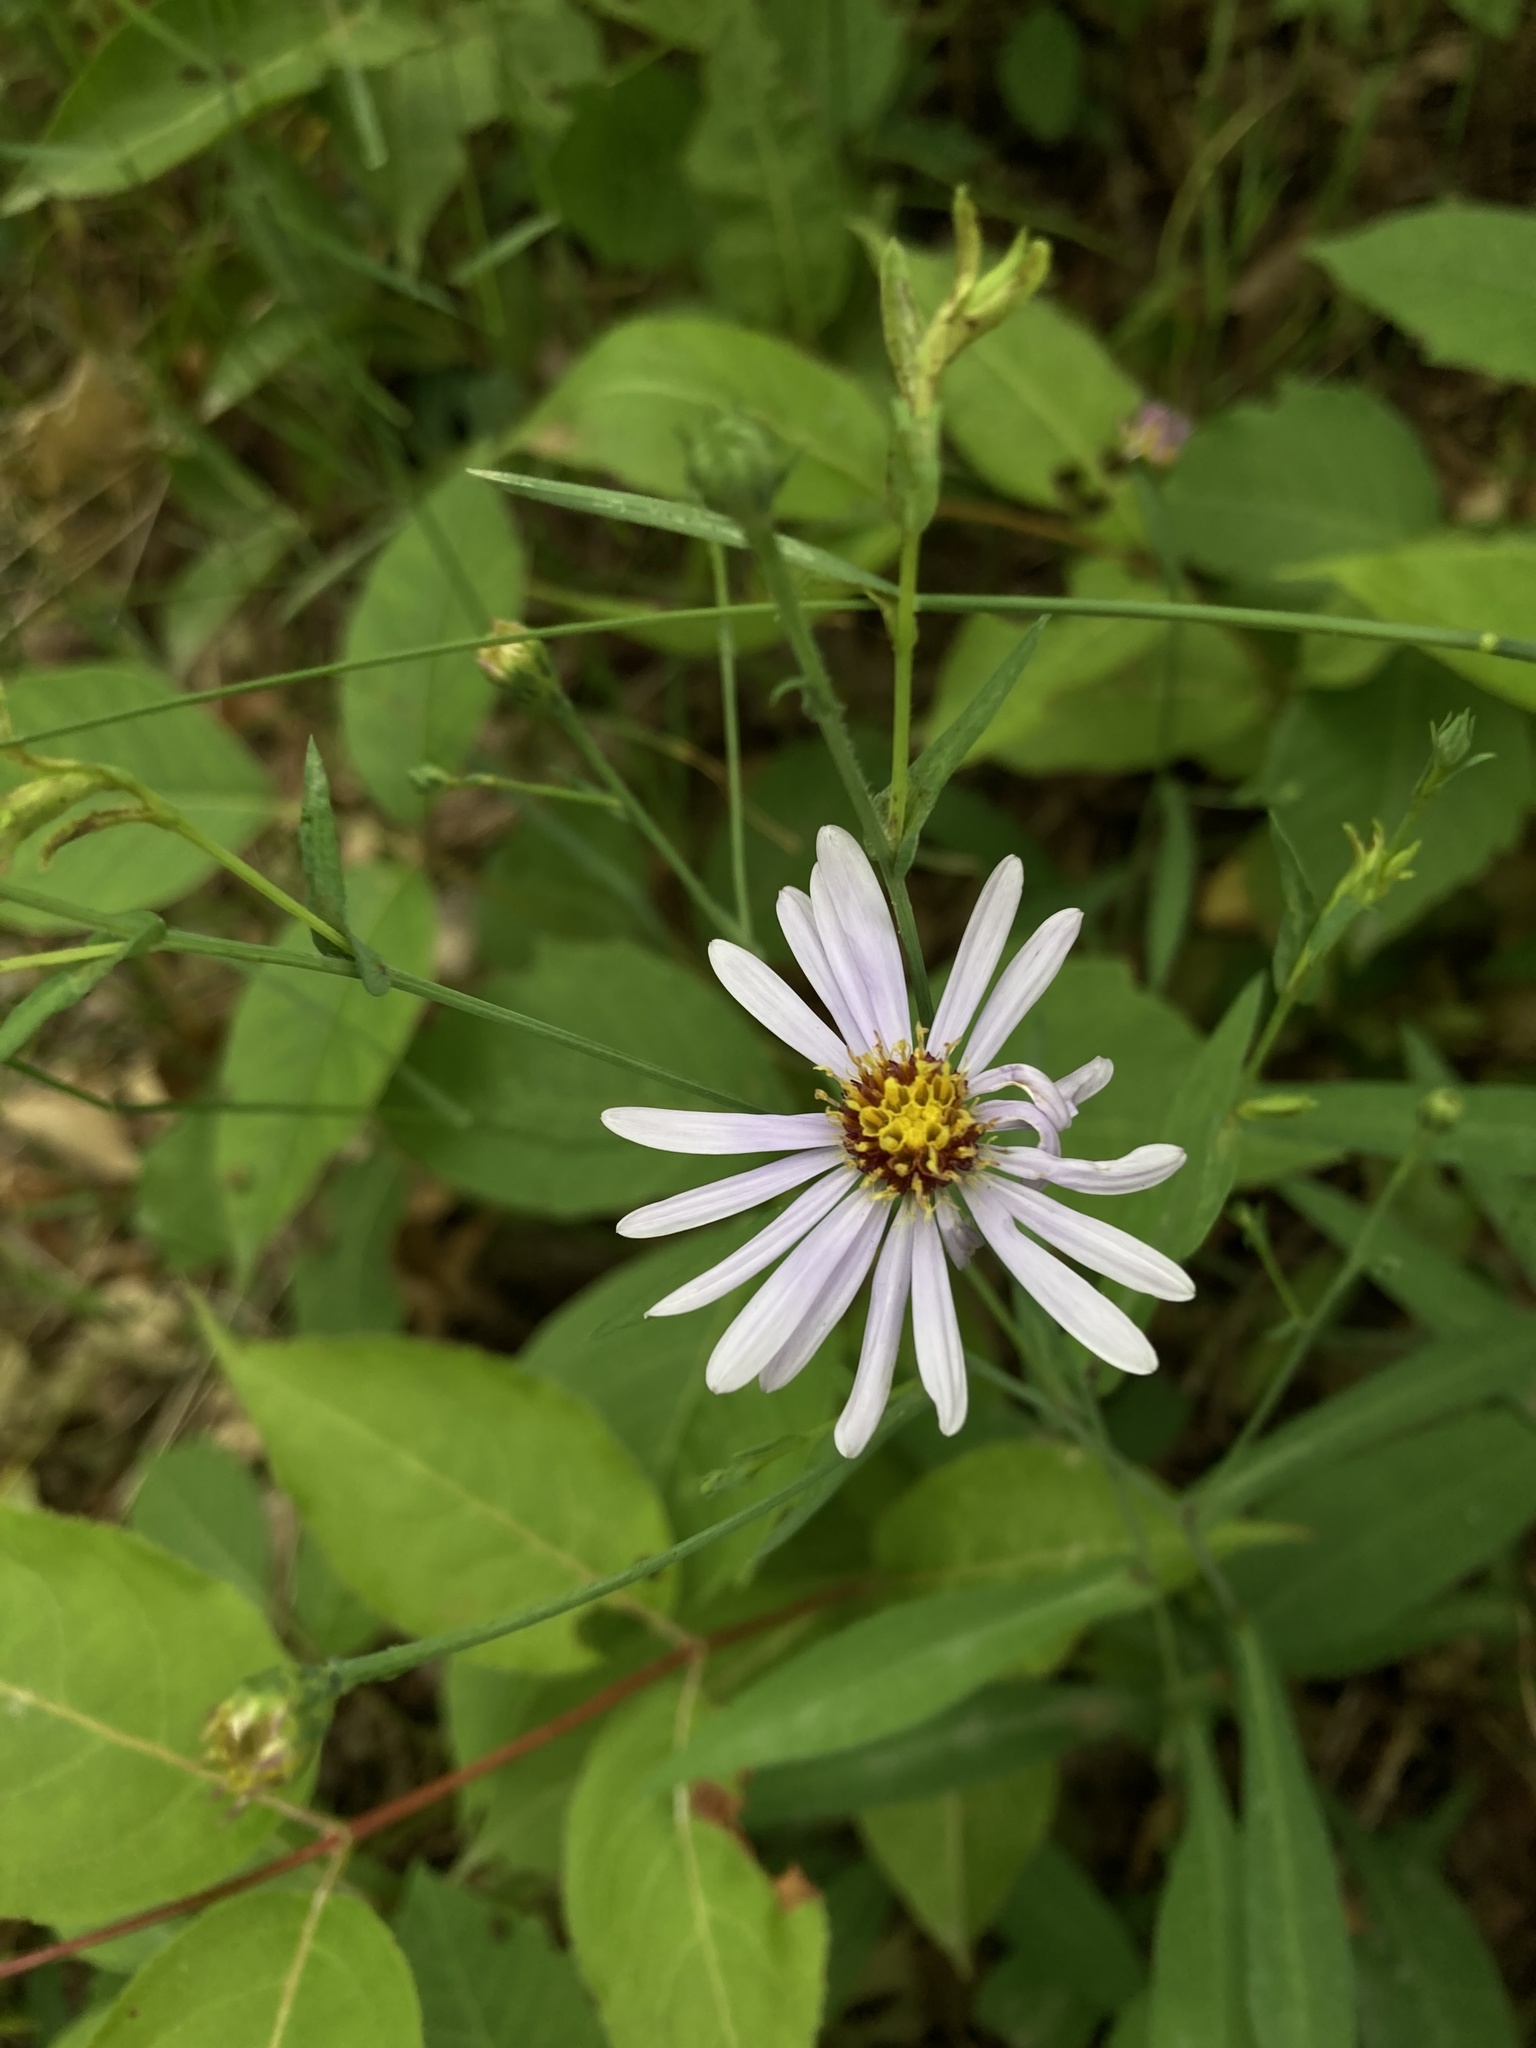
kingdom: Plantae
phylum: Tracheophyta
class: Magnoliopsida
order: Asterales
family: Asteraceae
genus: Symphyotrichum
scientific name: Symphyotrichum laeve
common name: Glaucous aster
